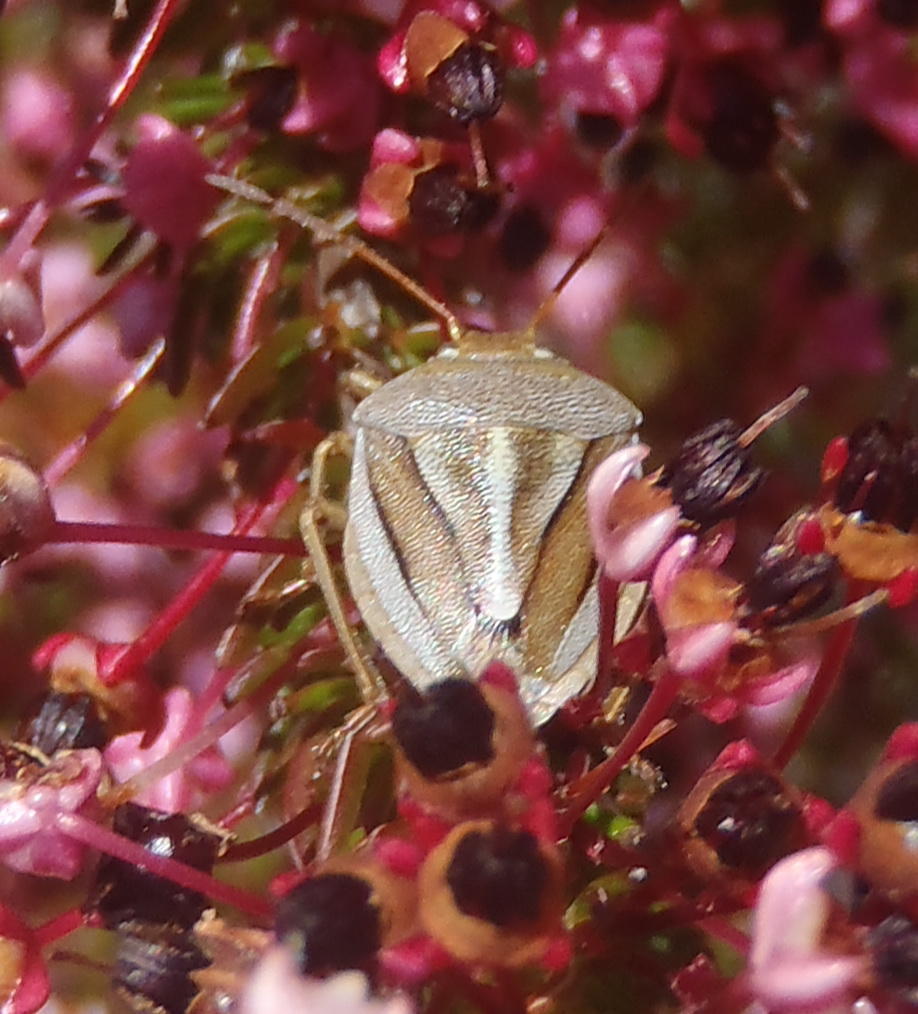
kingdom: Animalia
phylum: Arthropoda
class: Insecta
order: Hemiptera
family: Pentatomidae
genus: Theloris
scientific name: Theloris costata
